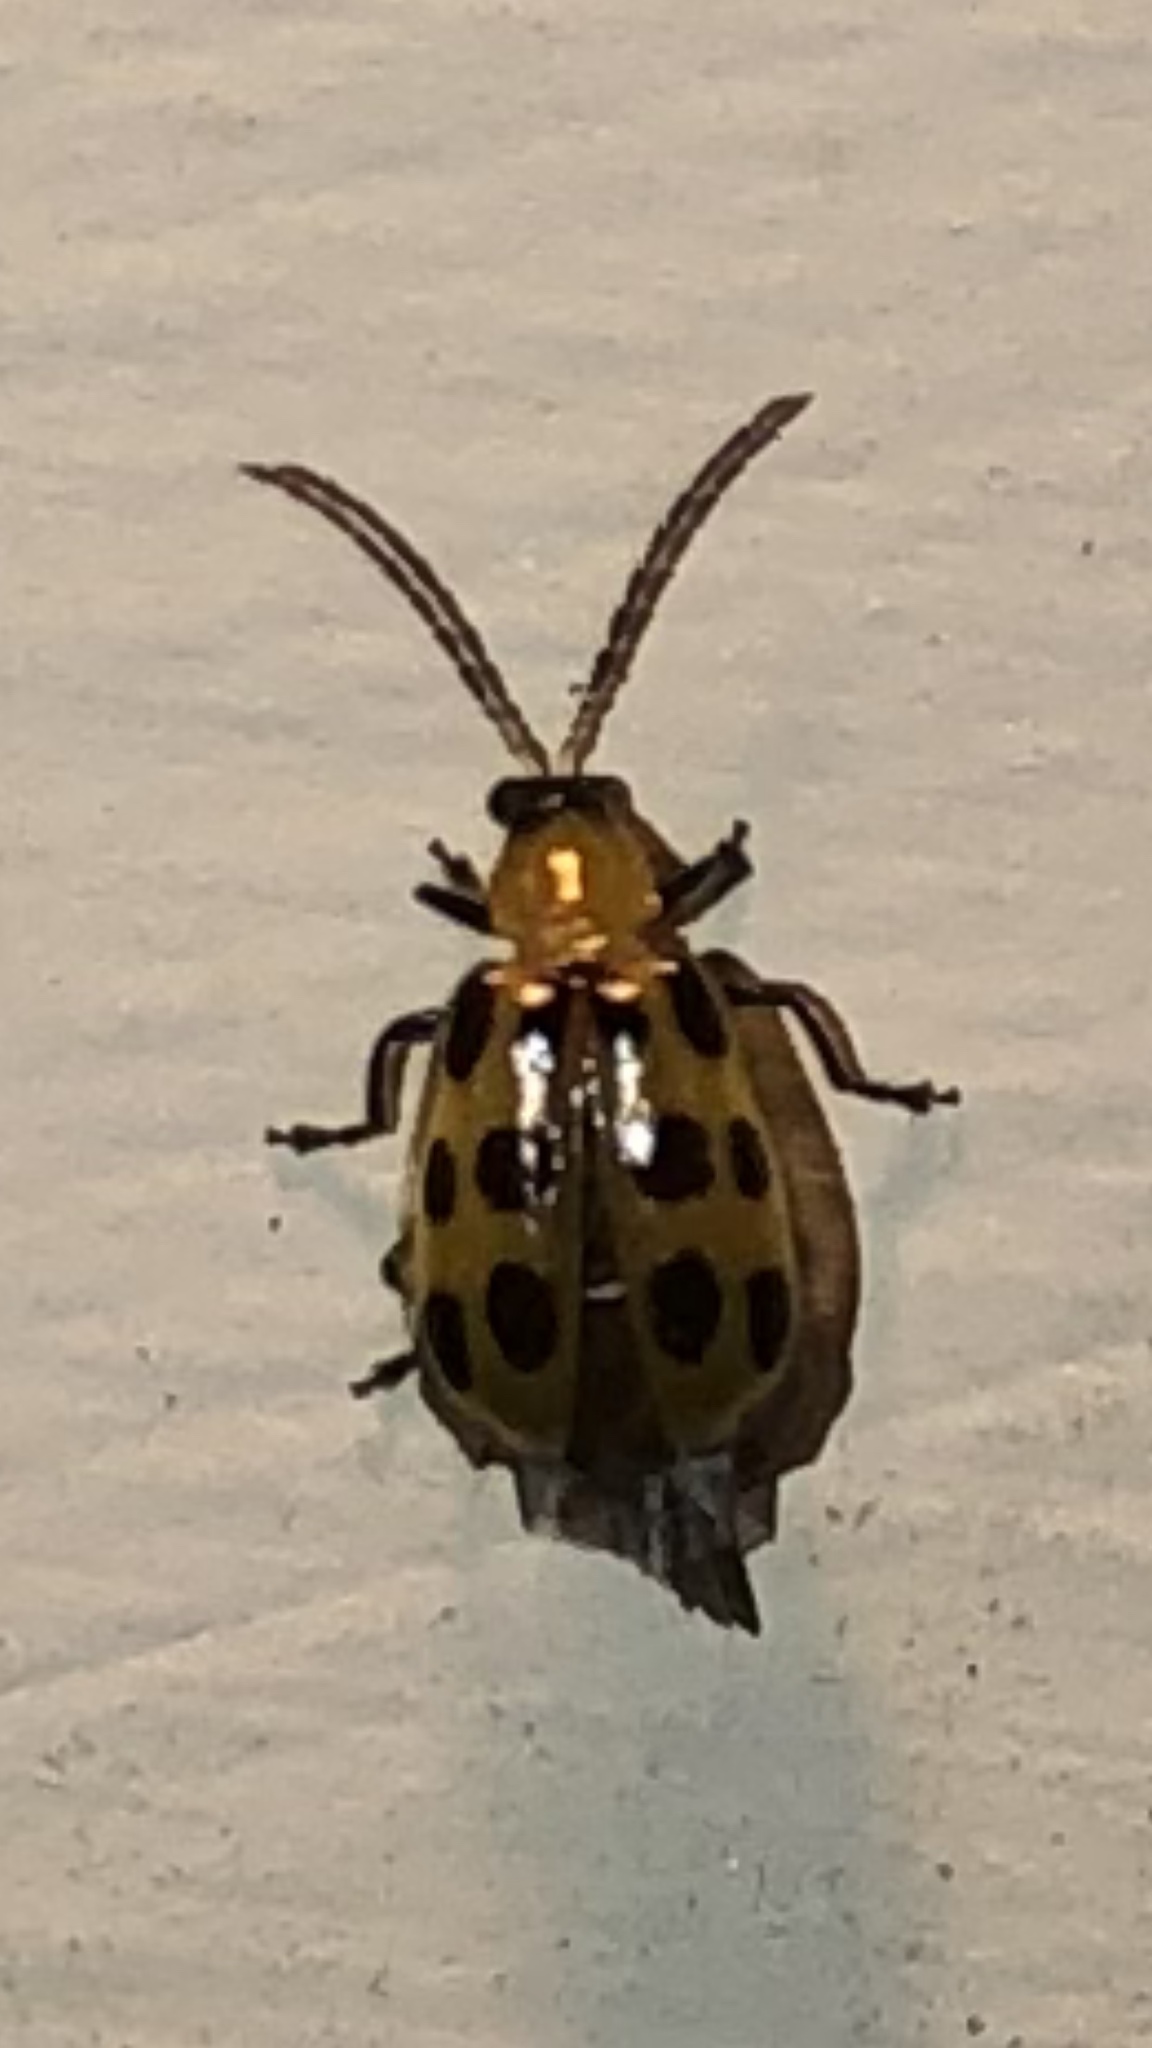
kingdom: Animalia
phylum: Arthropoda
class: Insecta
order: Coleoptera
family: Chrysomelidae
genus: Diabrotica
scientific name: Diabrotica undecimpunctata
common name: Spotted cucumber beetle
